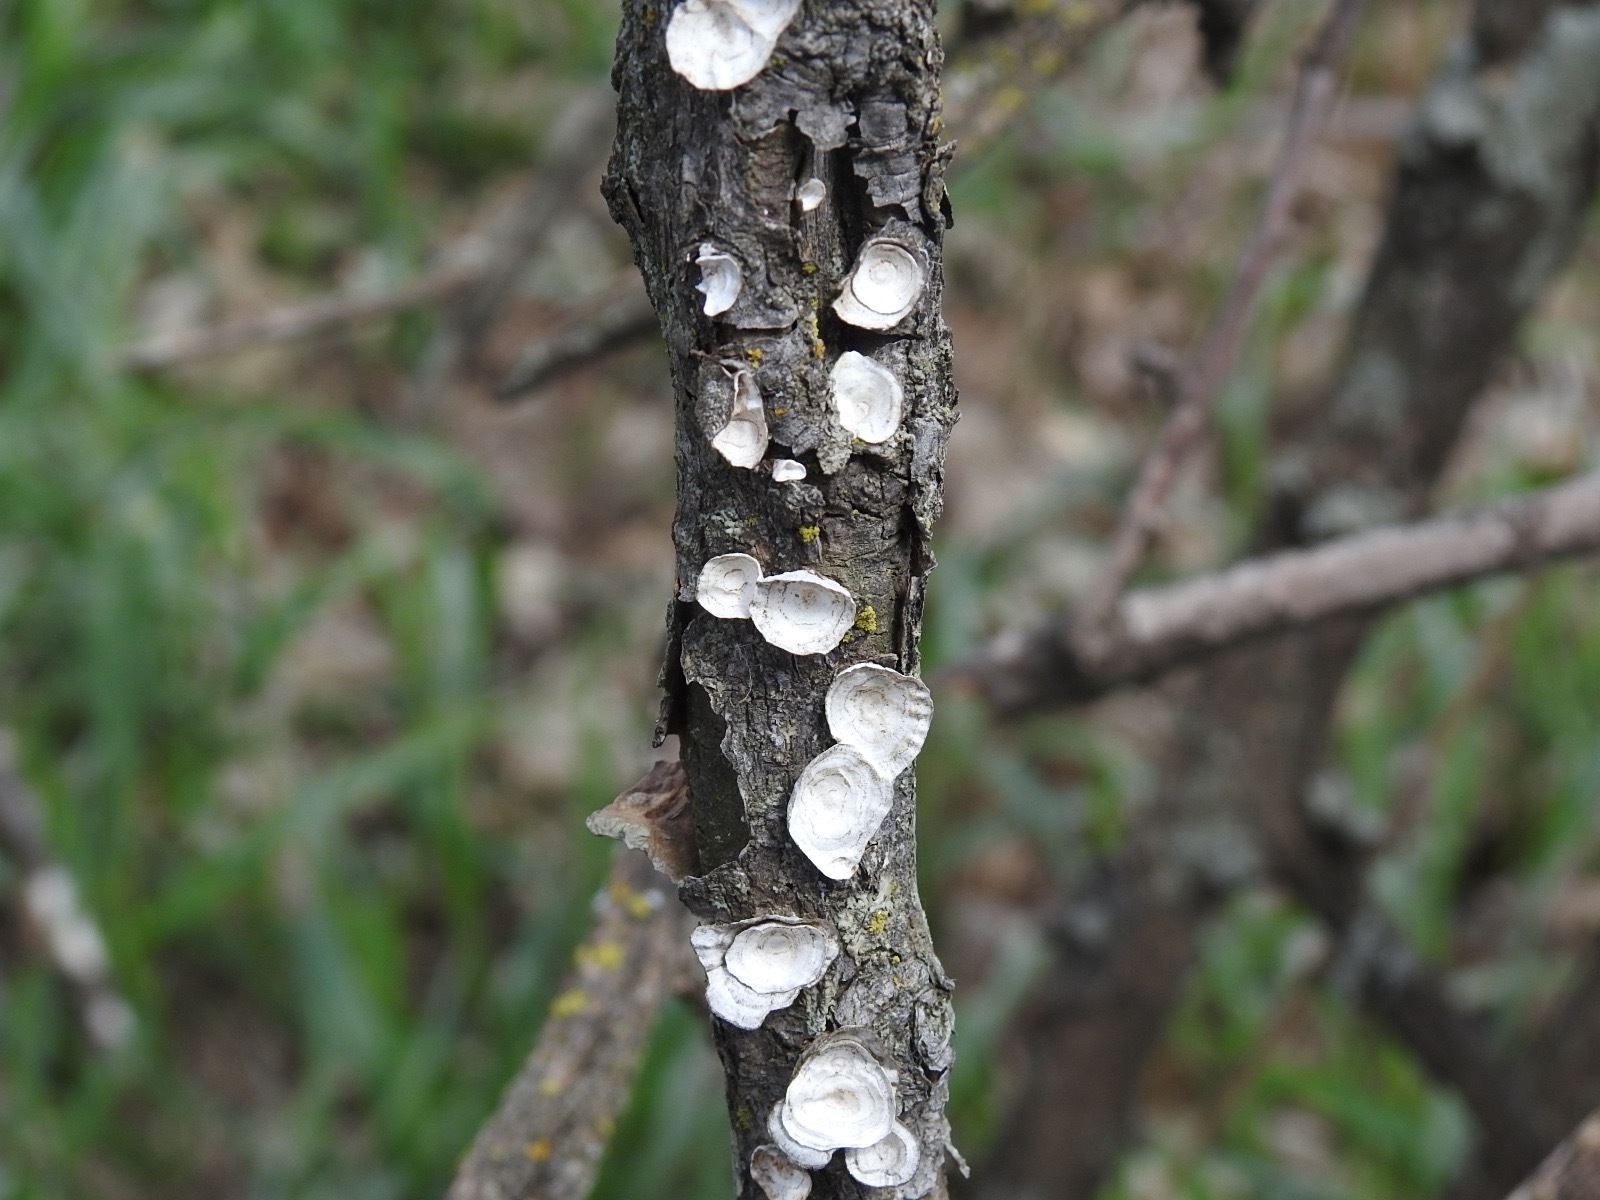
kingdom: Fungi
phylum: Basidiomycota
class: Agaricomycetes
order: Polyporales
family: Polyporaceae
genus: Poronidulus
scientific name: Poronidulus conchifer
